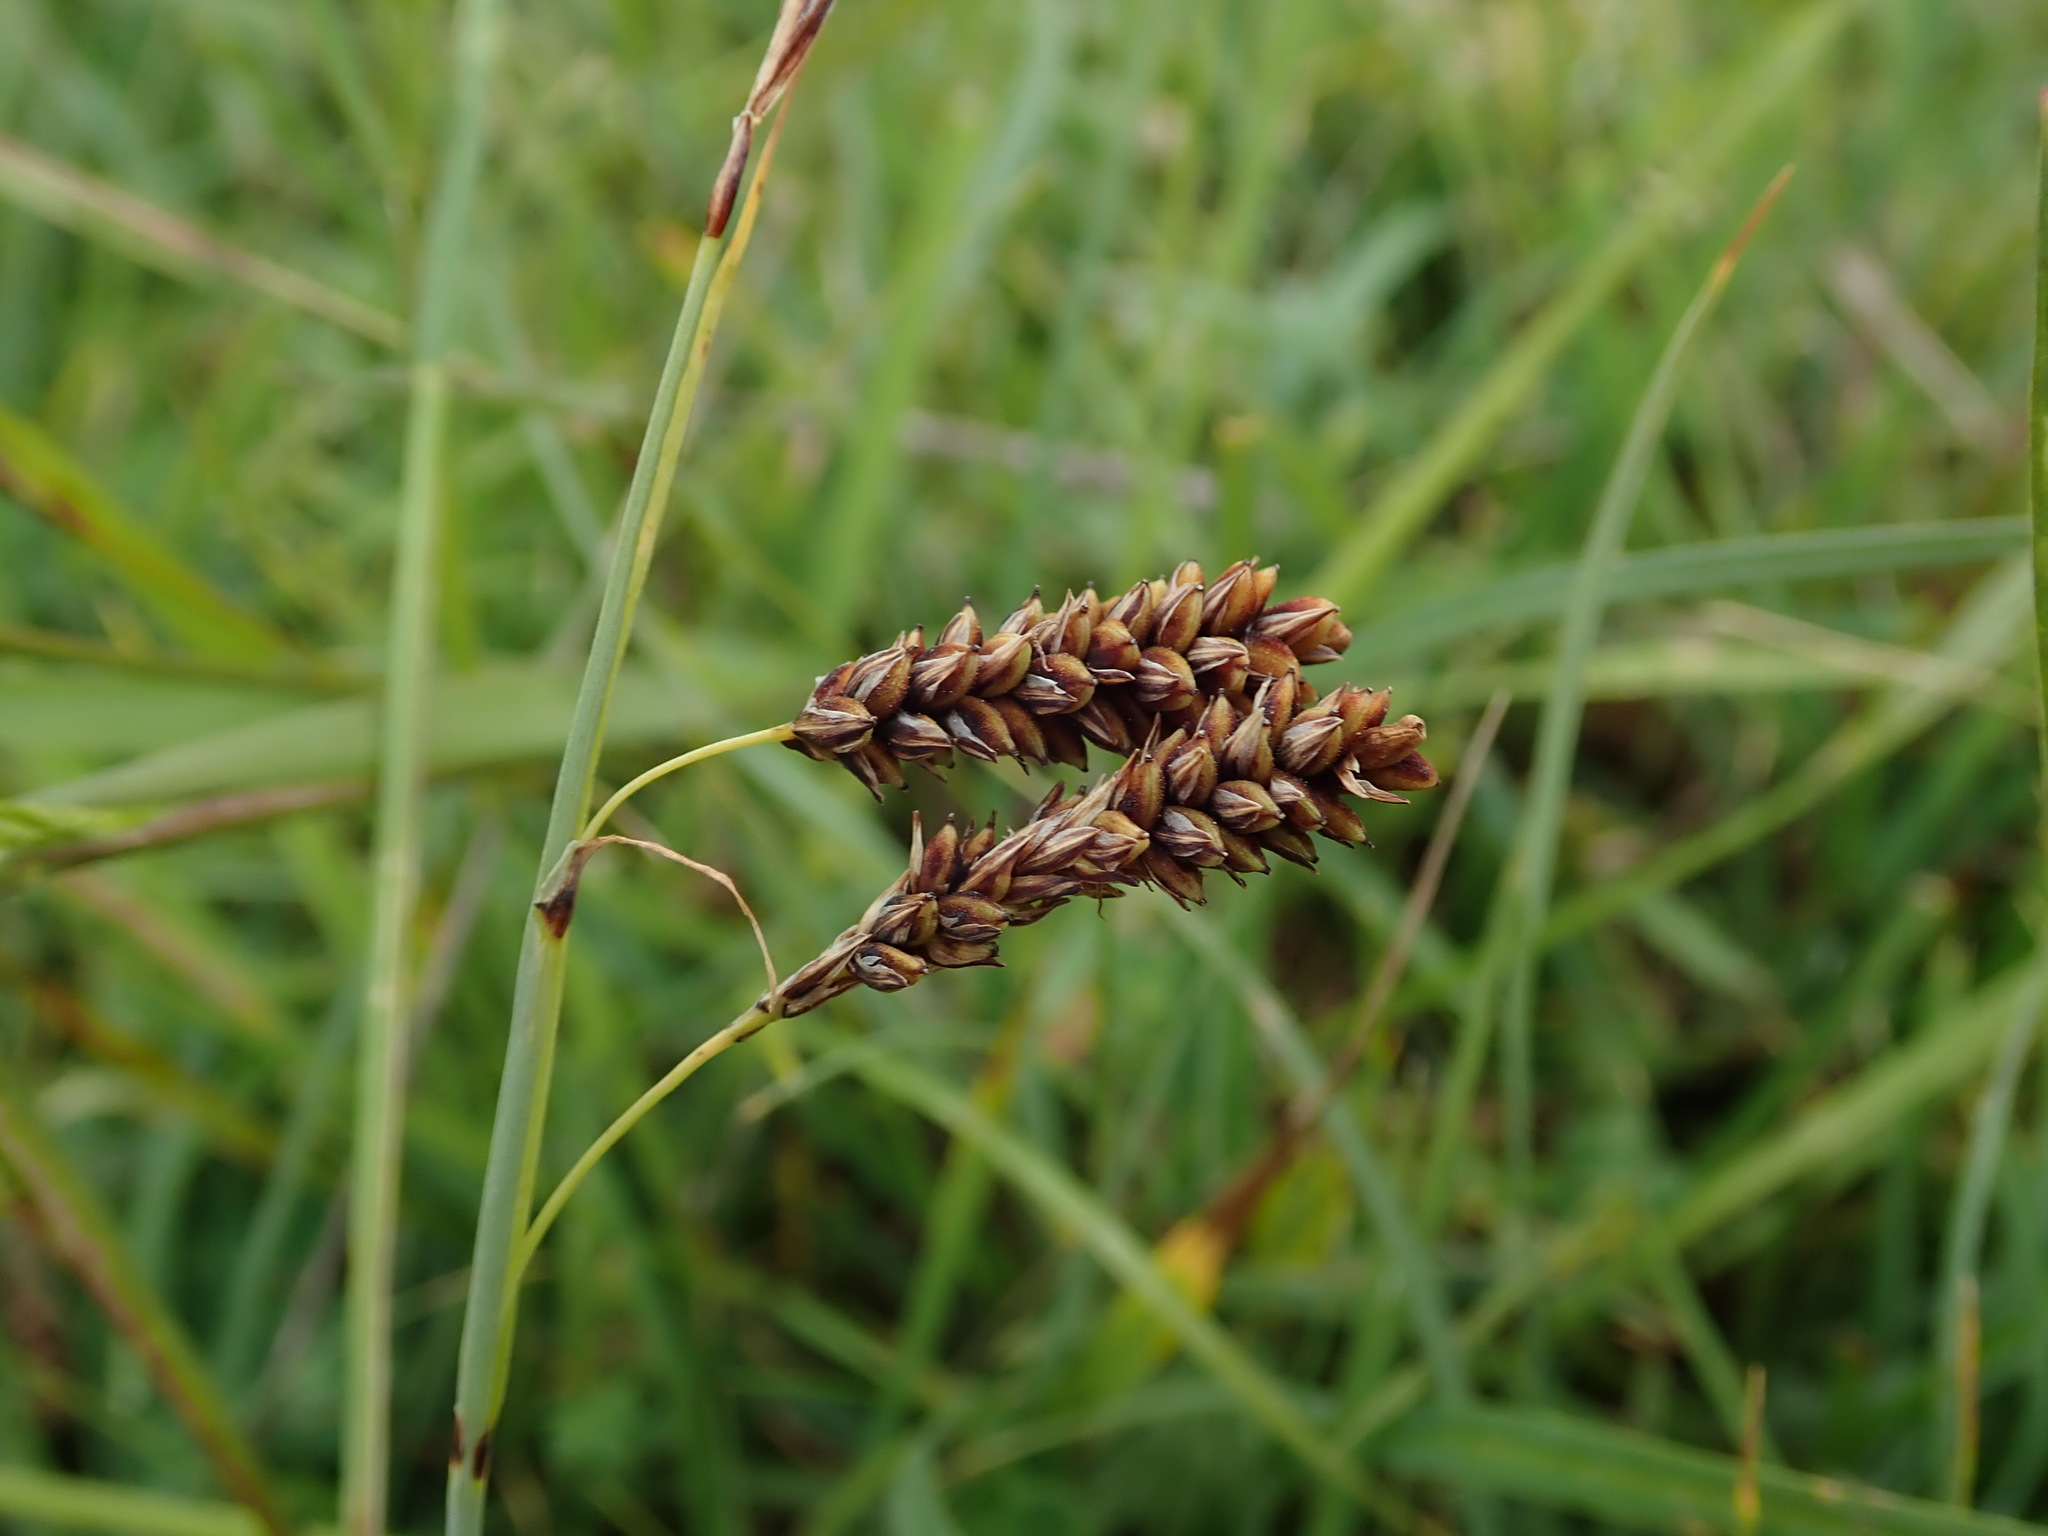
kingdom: Plantae
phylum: Tracheophyta
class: Liliopsida
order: Poales
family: Cyperaceae
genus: Carex
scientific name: Carex flacca
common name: Glaucous sedge
